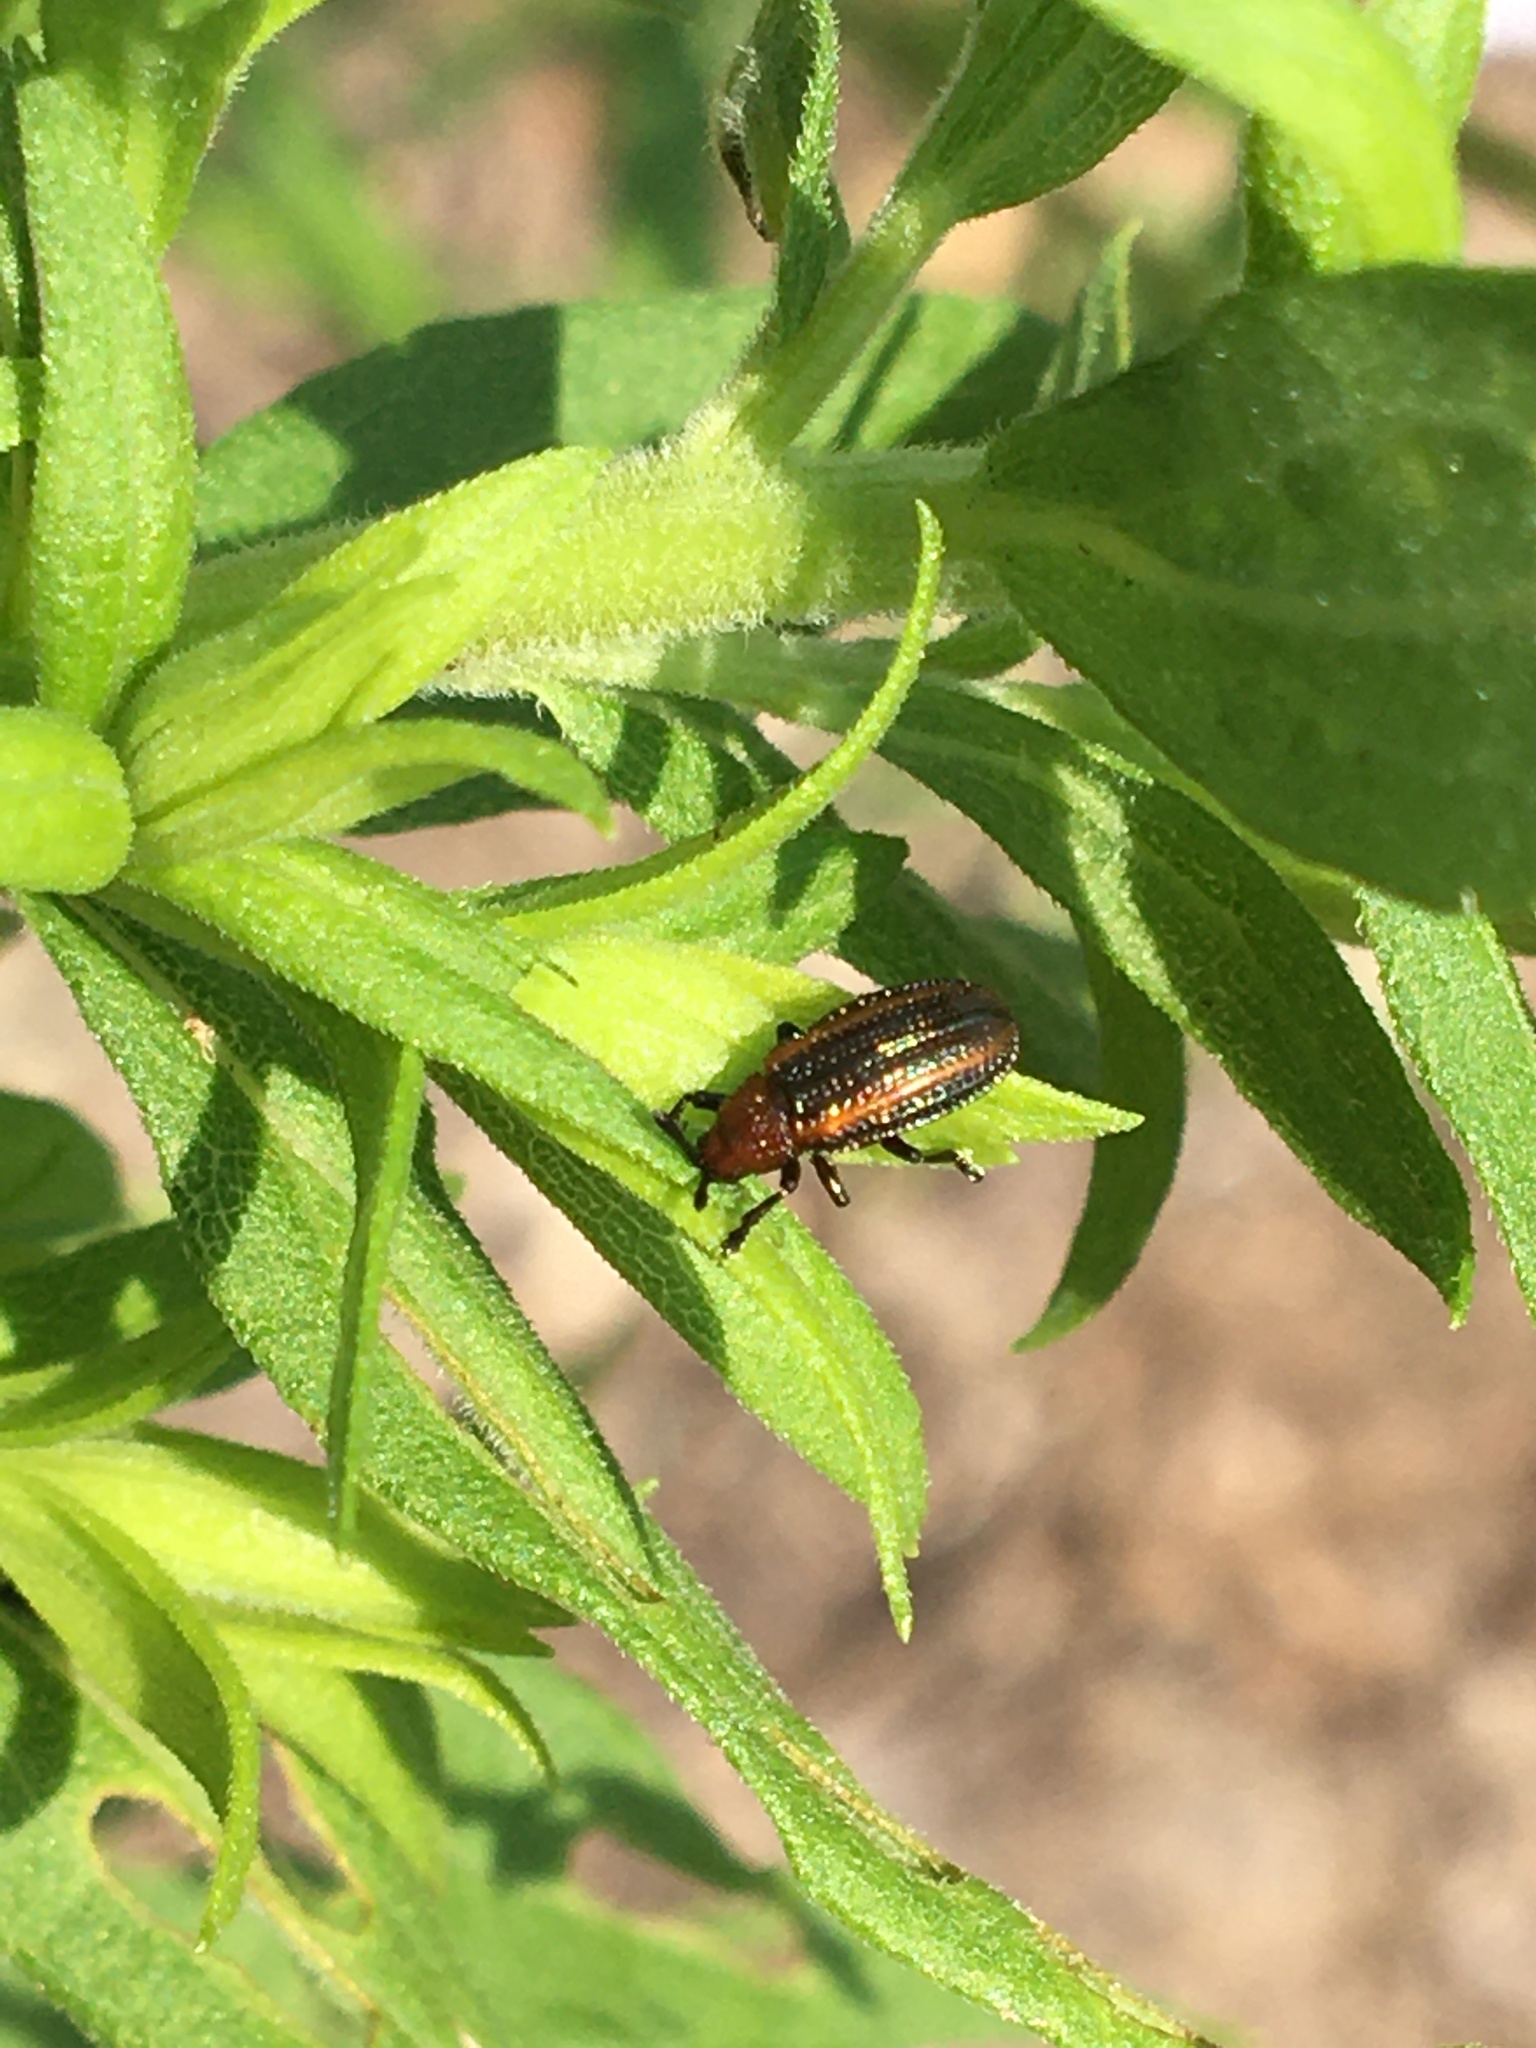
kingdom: Animalia
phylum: Arthropoda
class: Insecta
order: Coleoptera
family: Chrysomelidae
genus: Microrhopala
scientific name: Microrhopala vittata
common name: Goldenrod leaf miner beetle
